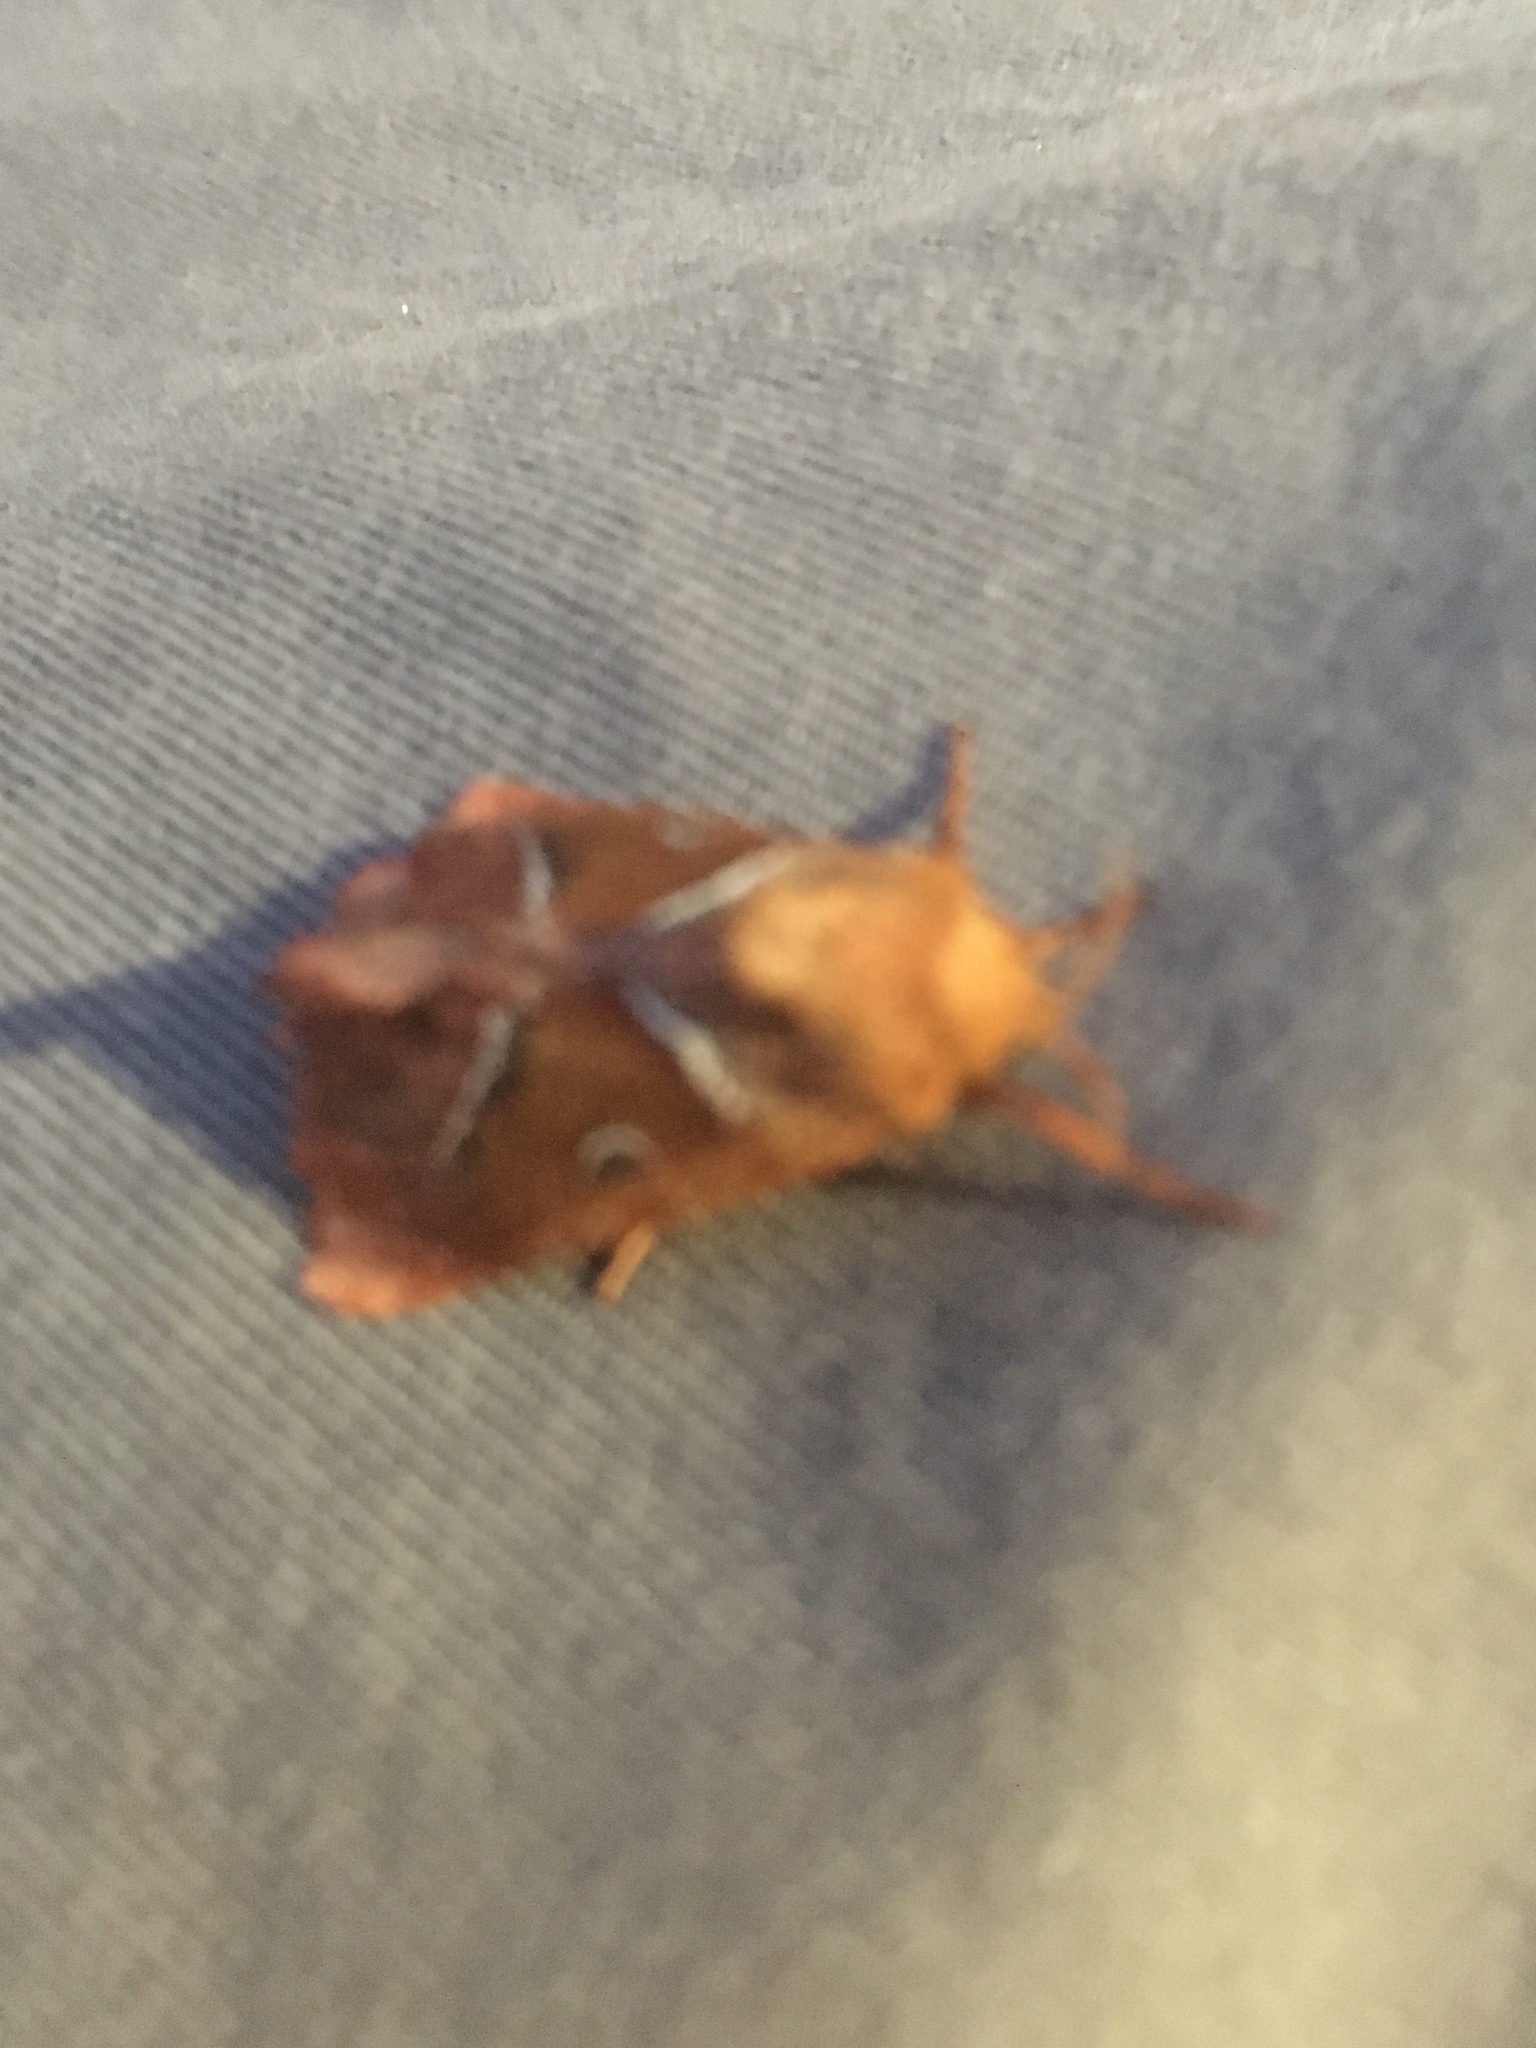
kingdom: Animalia
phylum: Arthropoda
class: Insecta
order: Lepidoptera
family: Hepialidae
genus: Triodia
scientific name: Triodia sylvina
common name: Orange swift
